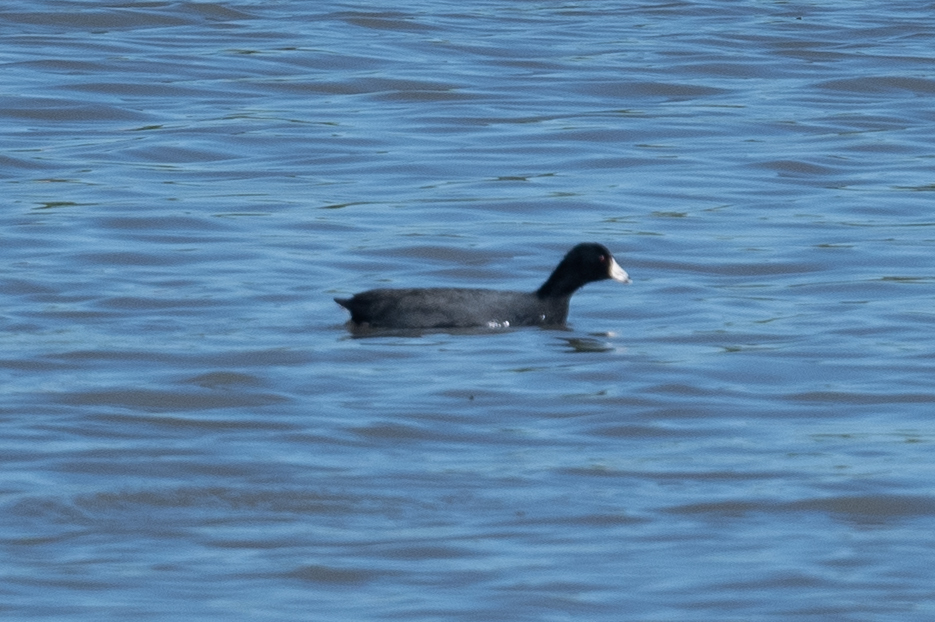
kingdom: Animalia
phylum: Chordata
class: Aves
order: Gruiformes
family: Rallidae
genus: Fulica
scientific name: Fulica americana
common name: American coot
